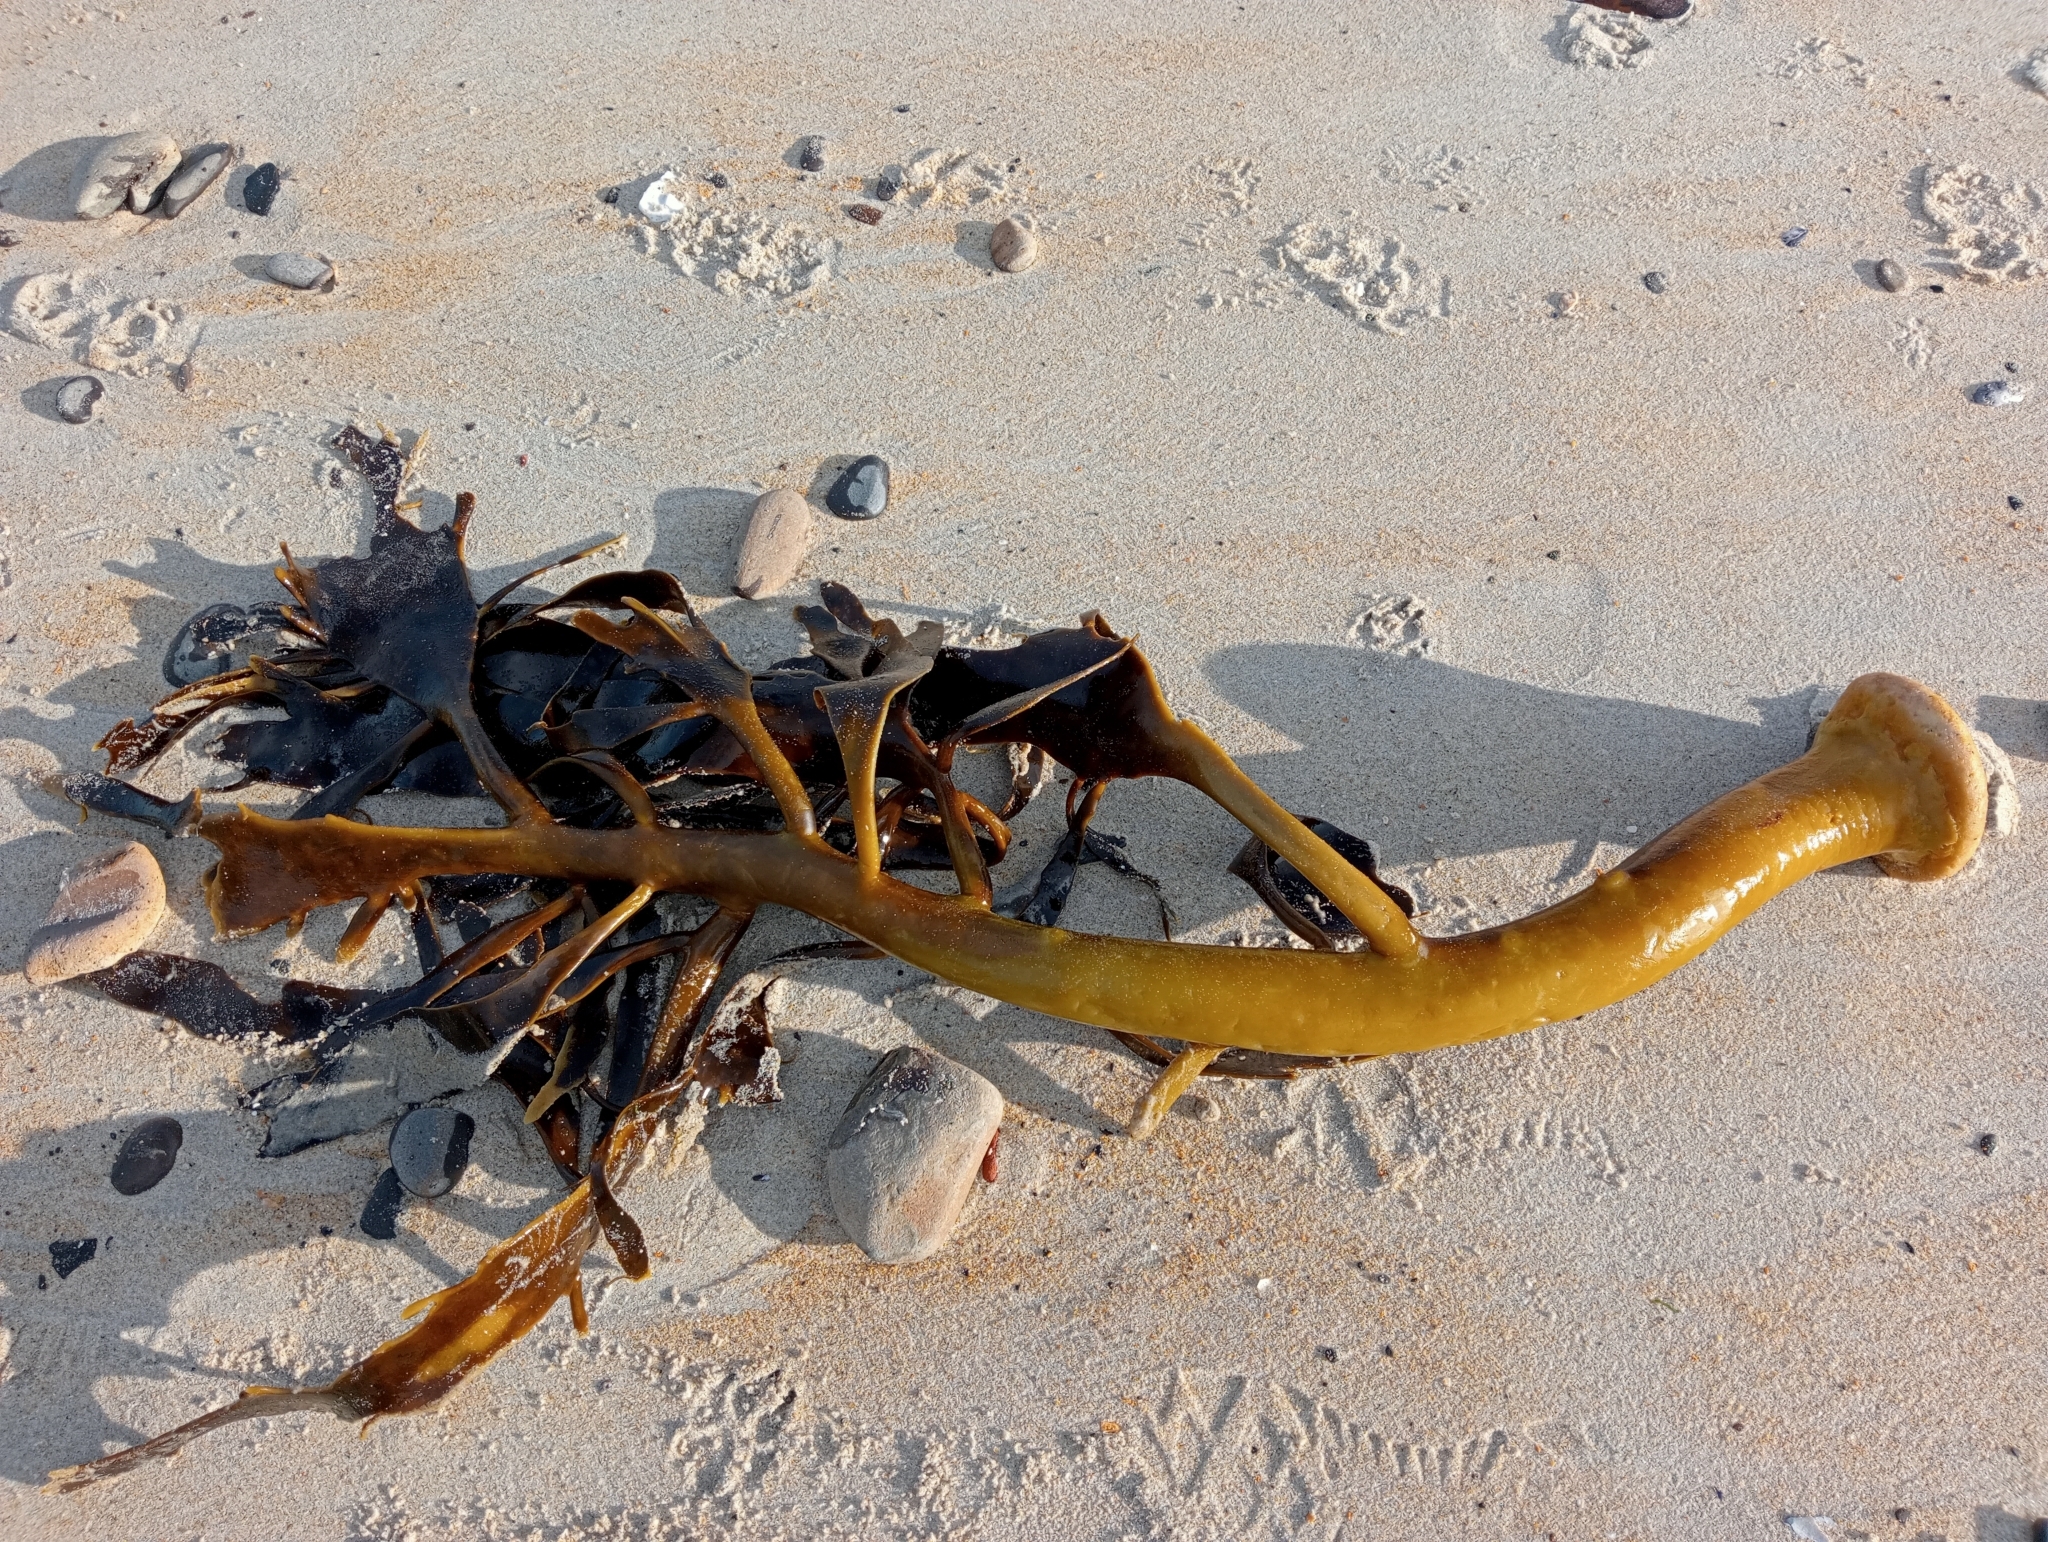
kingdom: Chromista
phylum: Ochrophyta
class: Phaeophyceae
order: Fucales
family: Durvillaeaceae
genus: Durvillaea
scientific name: Durvillaea willana
